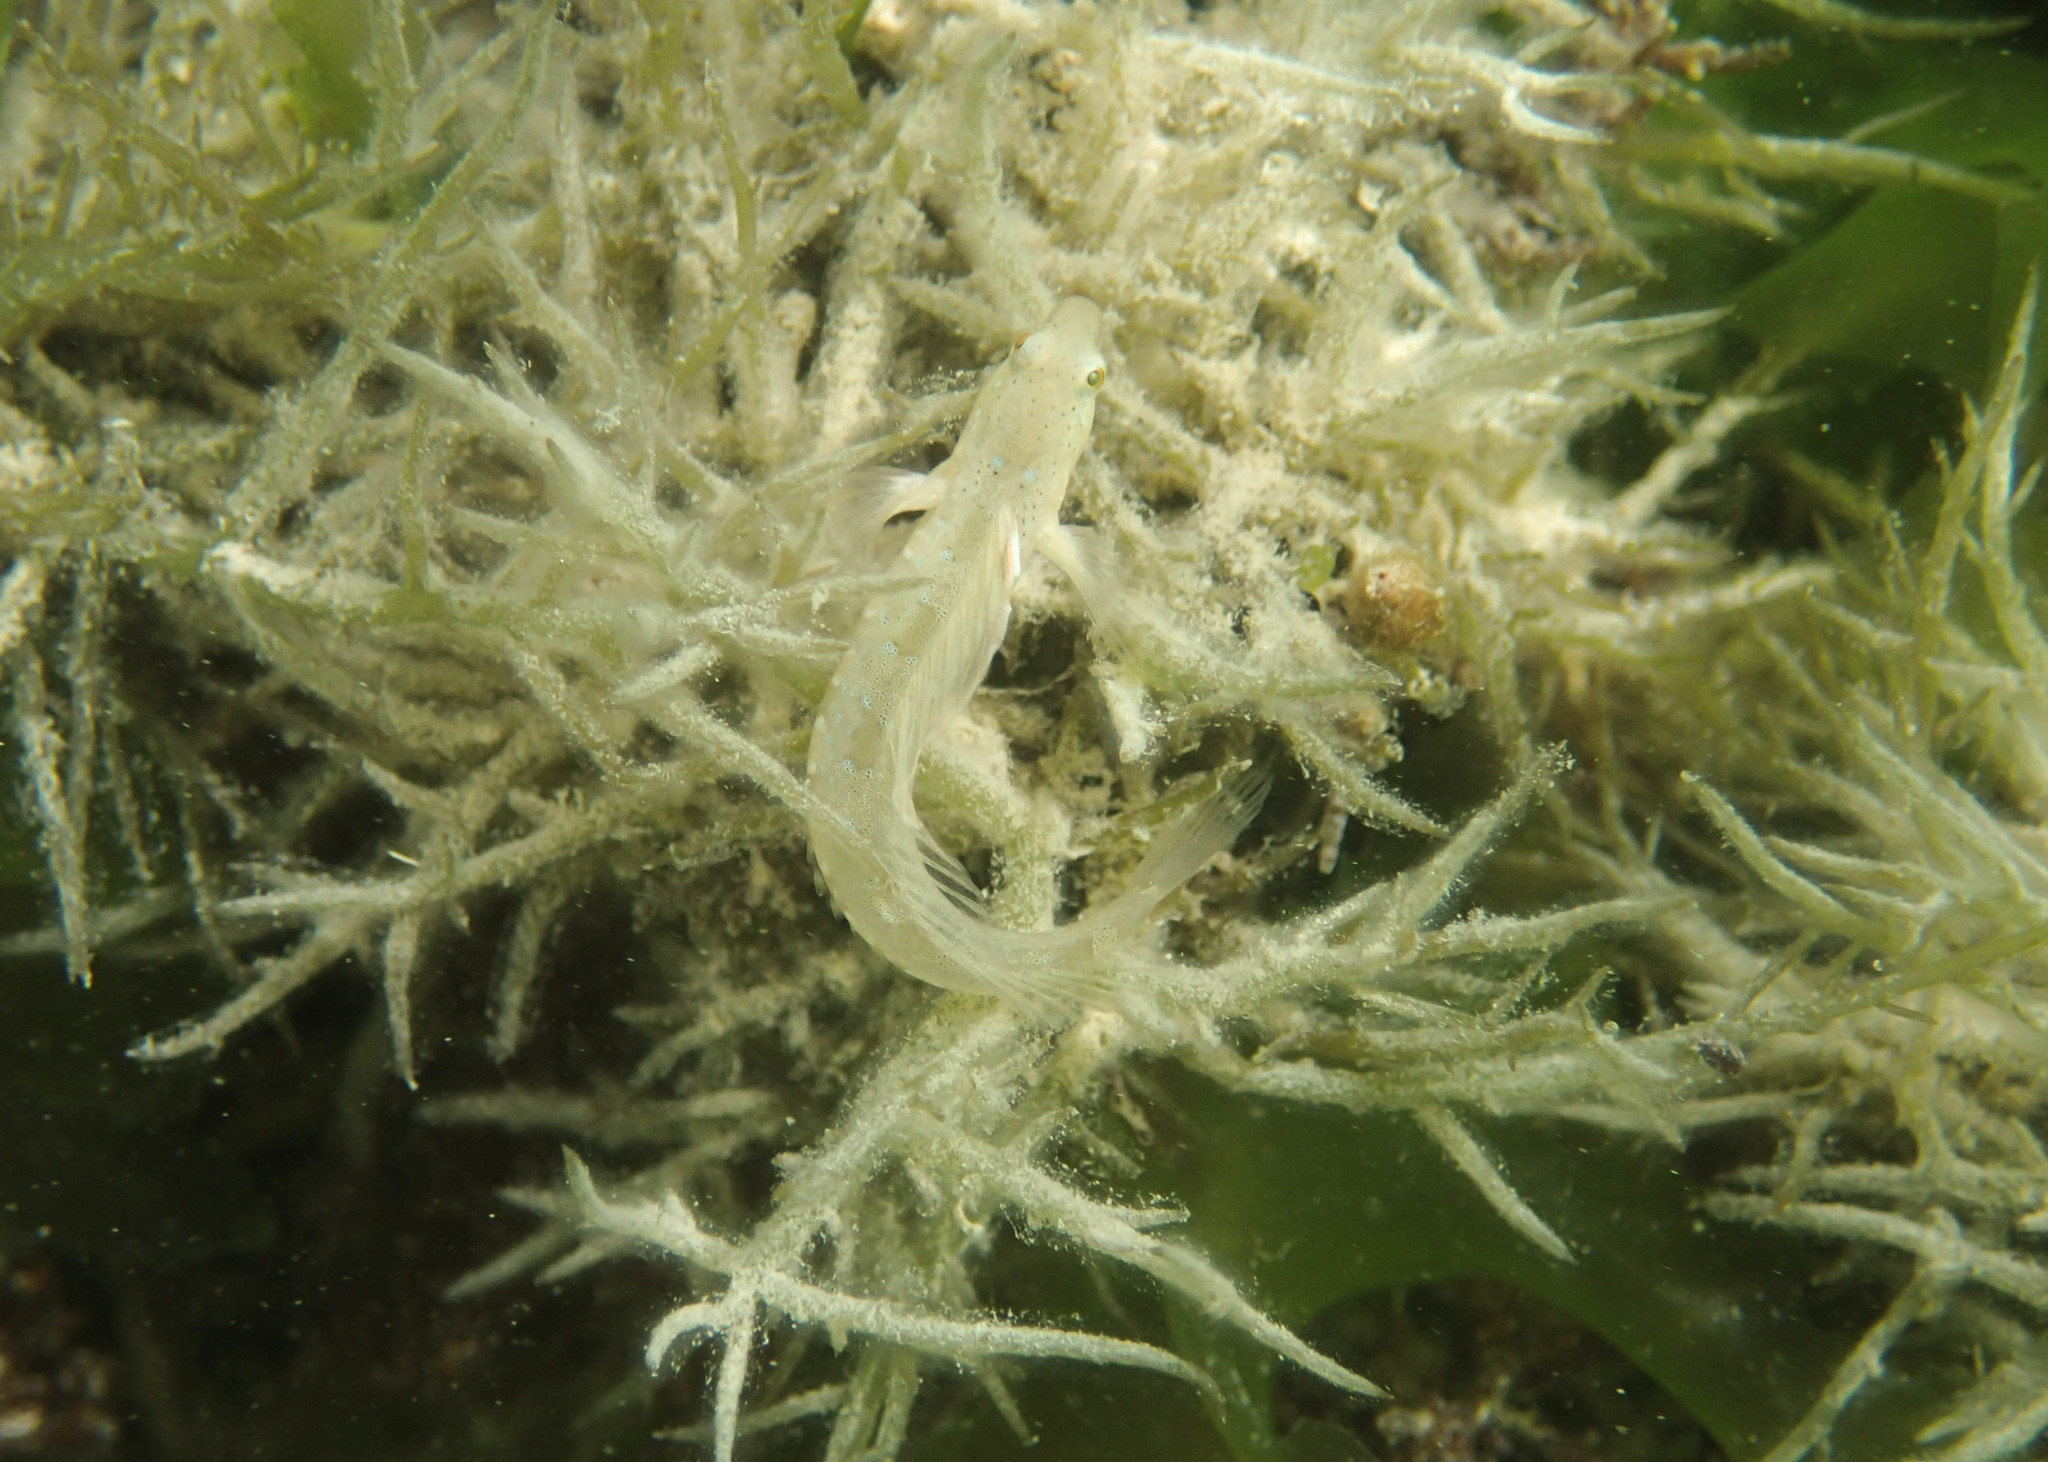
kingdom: Animalia
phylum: Chordata
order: Perciformes
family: Blenniidae
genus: Microlipophrys
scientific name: Microlipophrys dalmatinus
